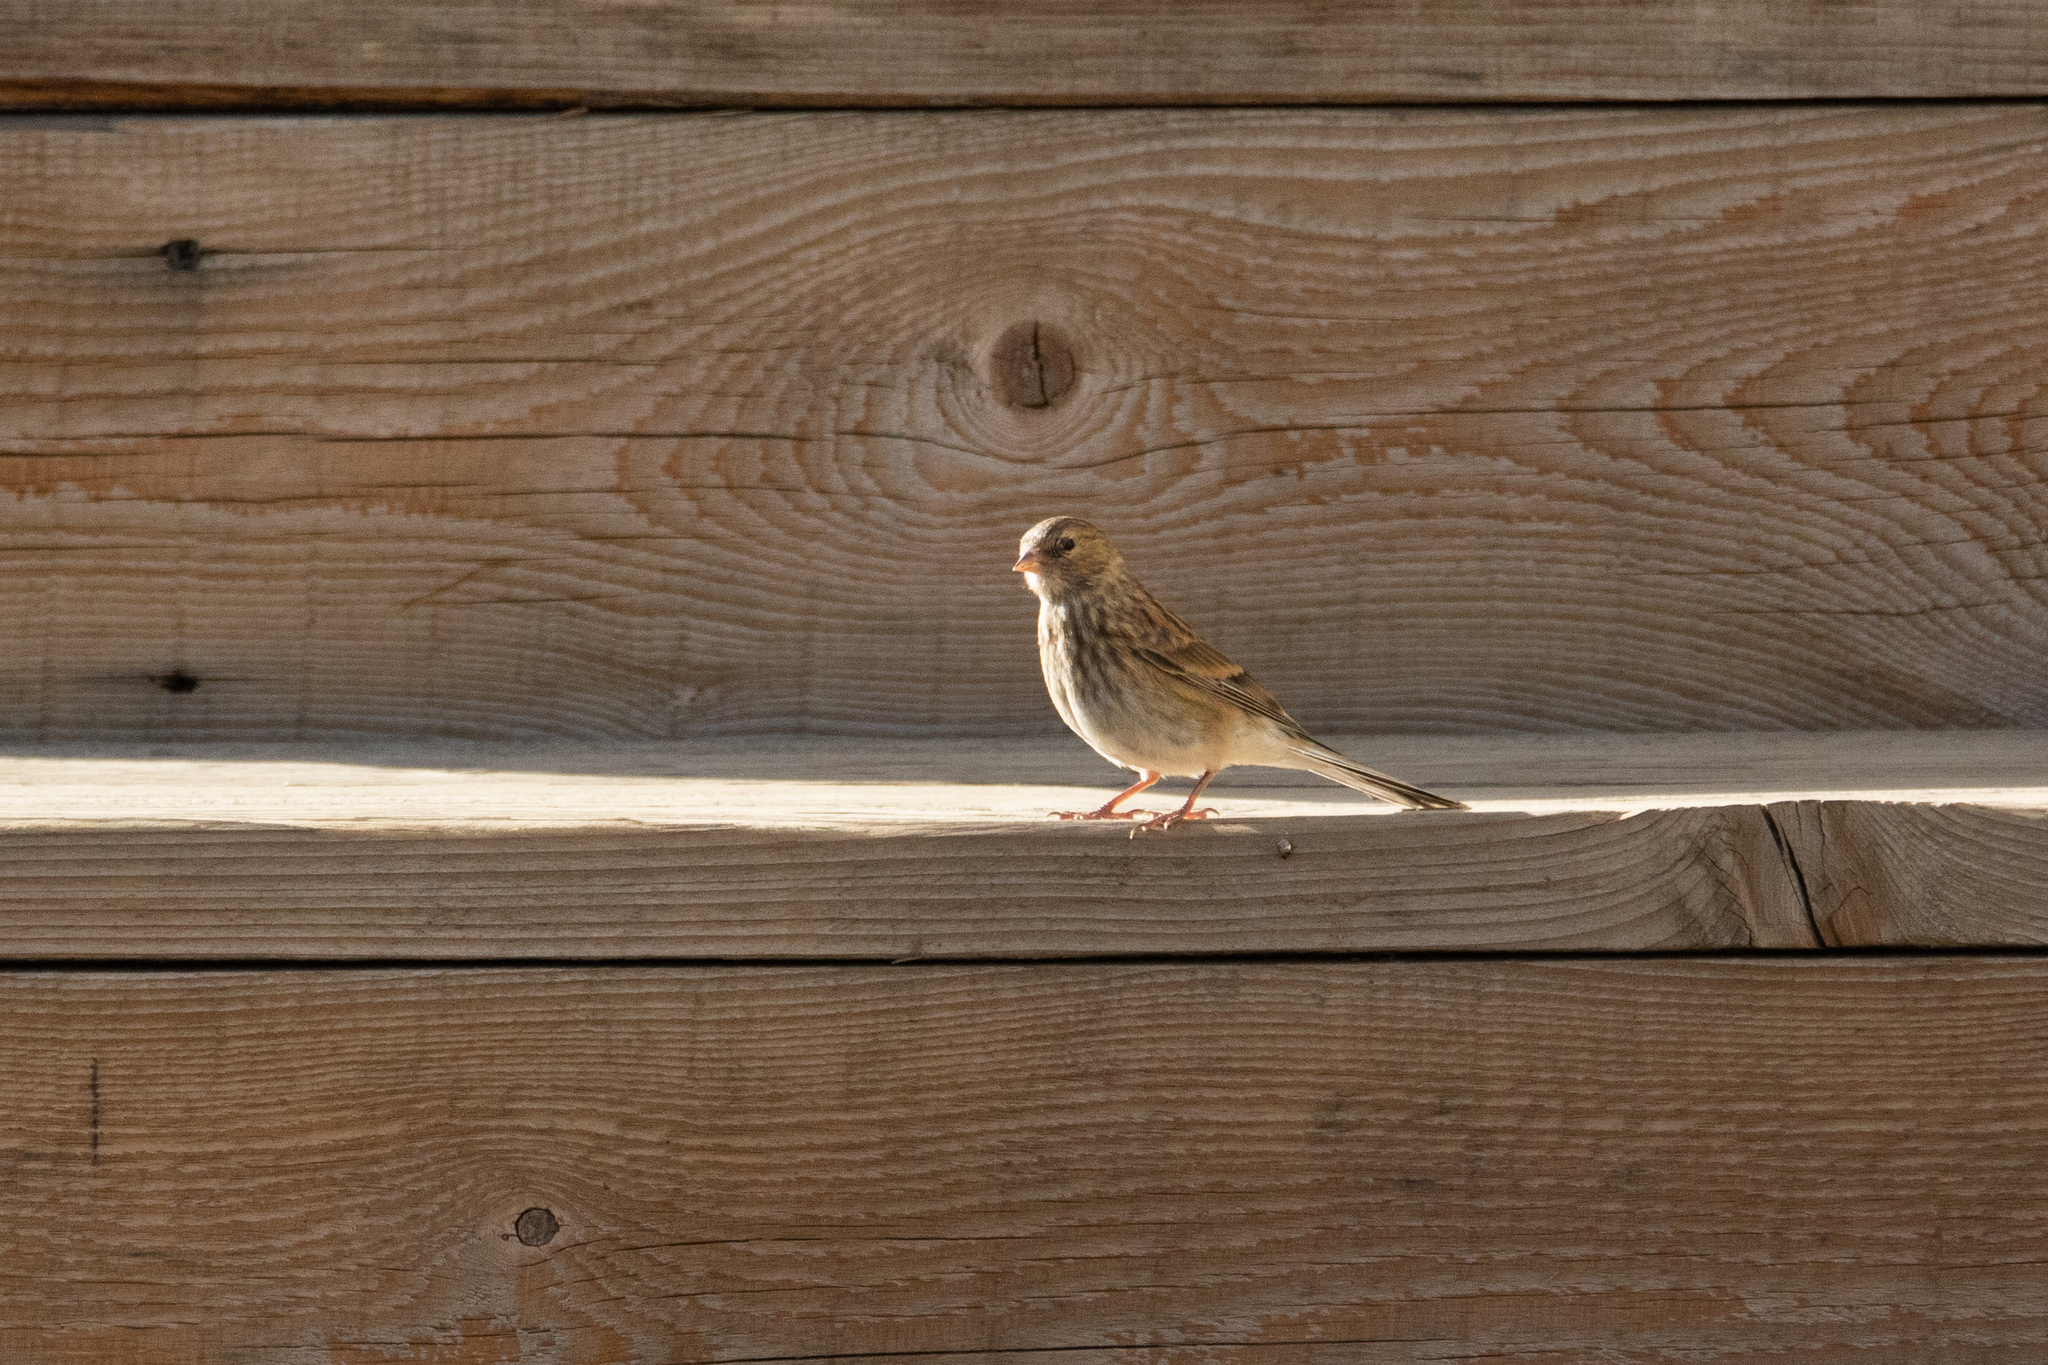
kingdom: Animalia
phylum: Chordata
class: Aves
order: Passeriformes
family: Fringillidae
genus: Linaria
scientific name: Linaria cannabina
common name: Common linnet
